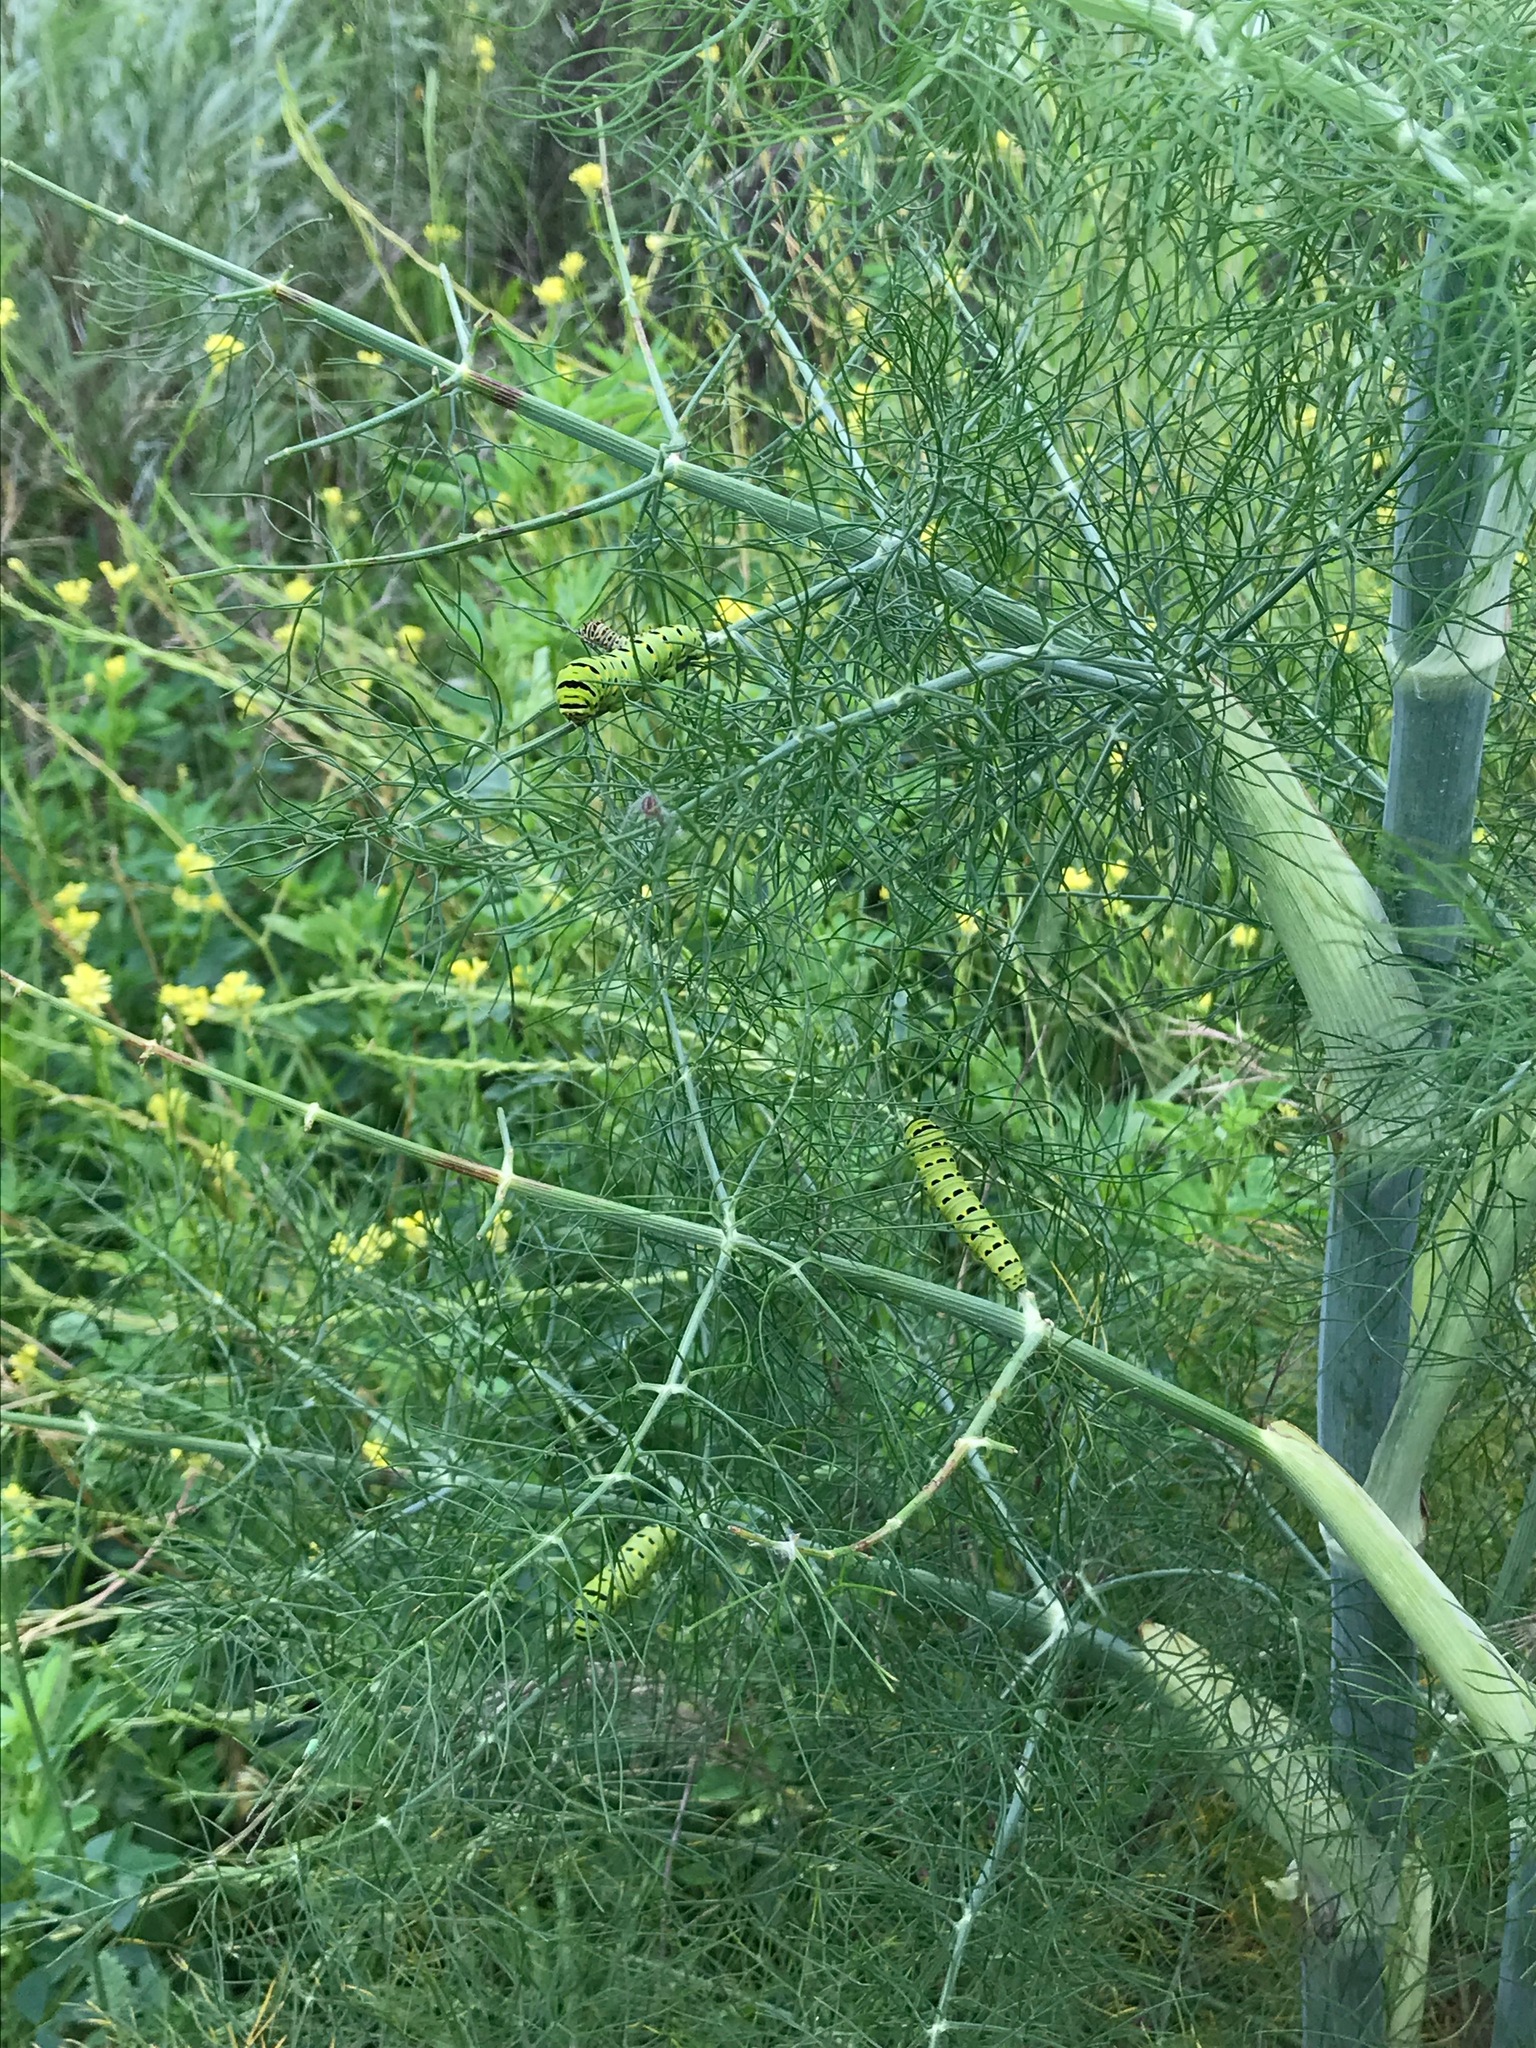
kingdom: Animalia
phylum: Arthropoda
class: Insecta
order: Lepidoptera
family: Papilionidae
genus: Papilio
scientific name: Papilio zelicaon
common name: Anise swallowtail
